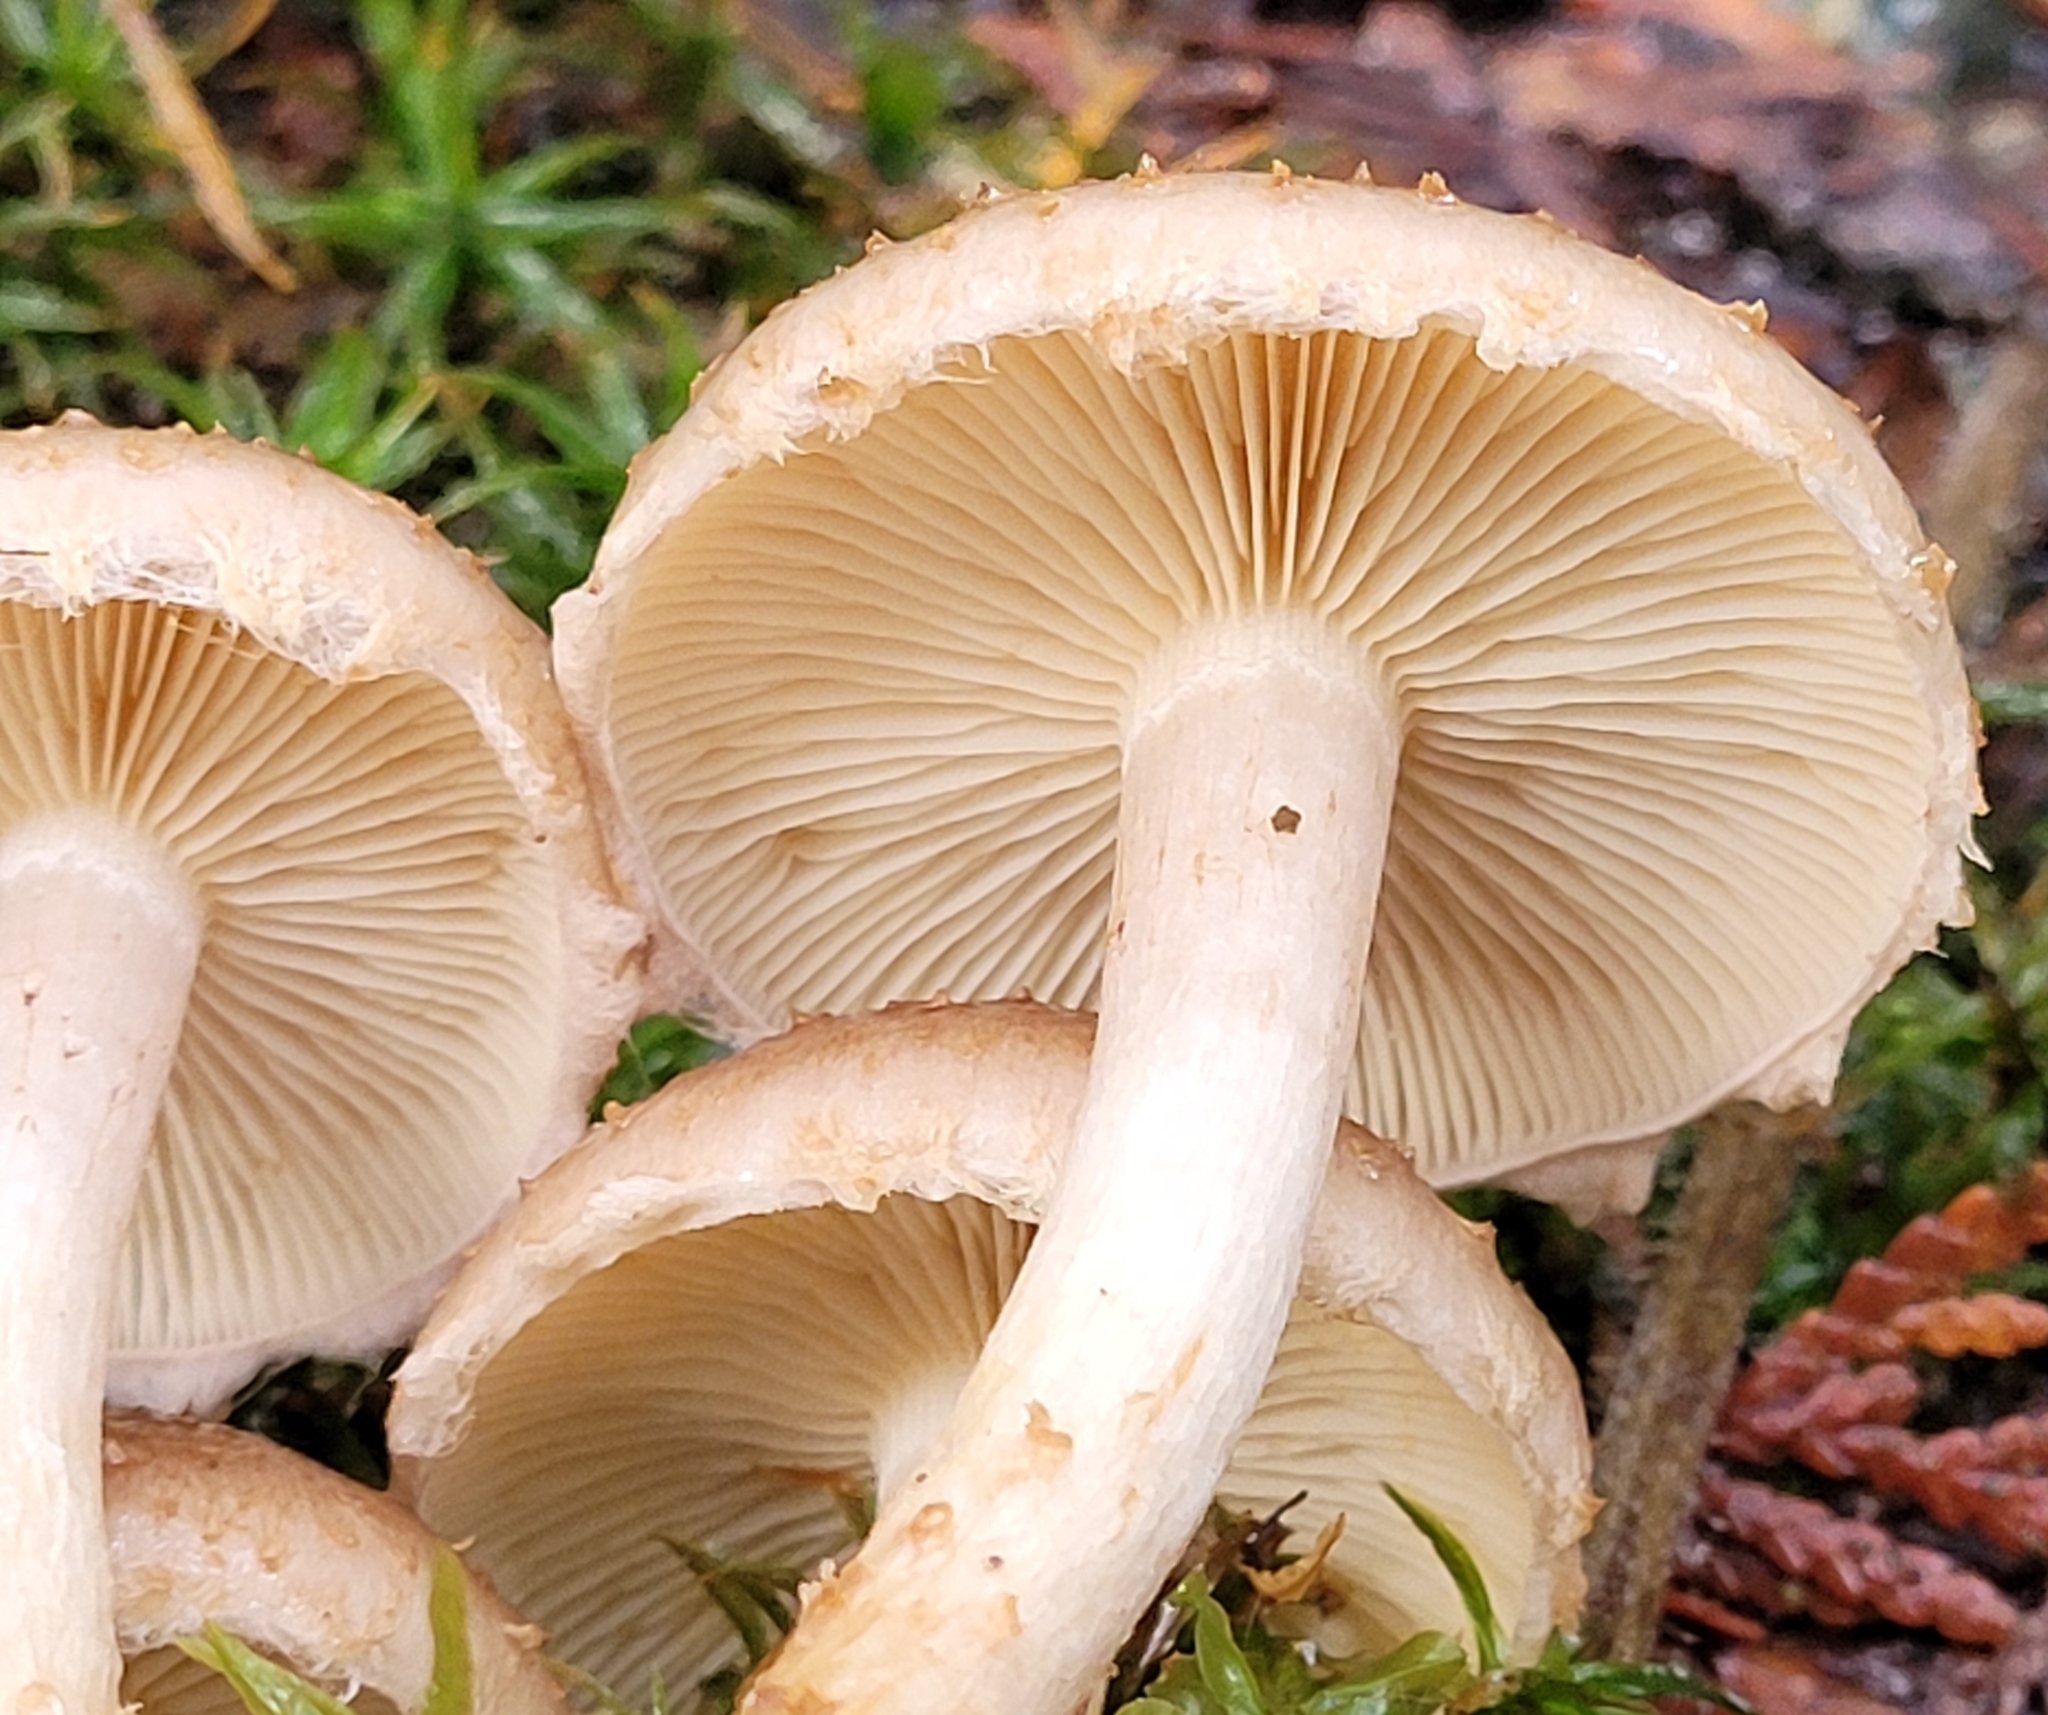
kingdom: Fungi
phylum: Basidiomycota
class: Agaricomycetes
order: Agaricales
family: Strophariaceae
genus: Pholiota
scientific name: Pholiota terrestris
